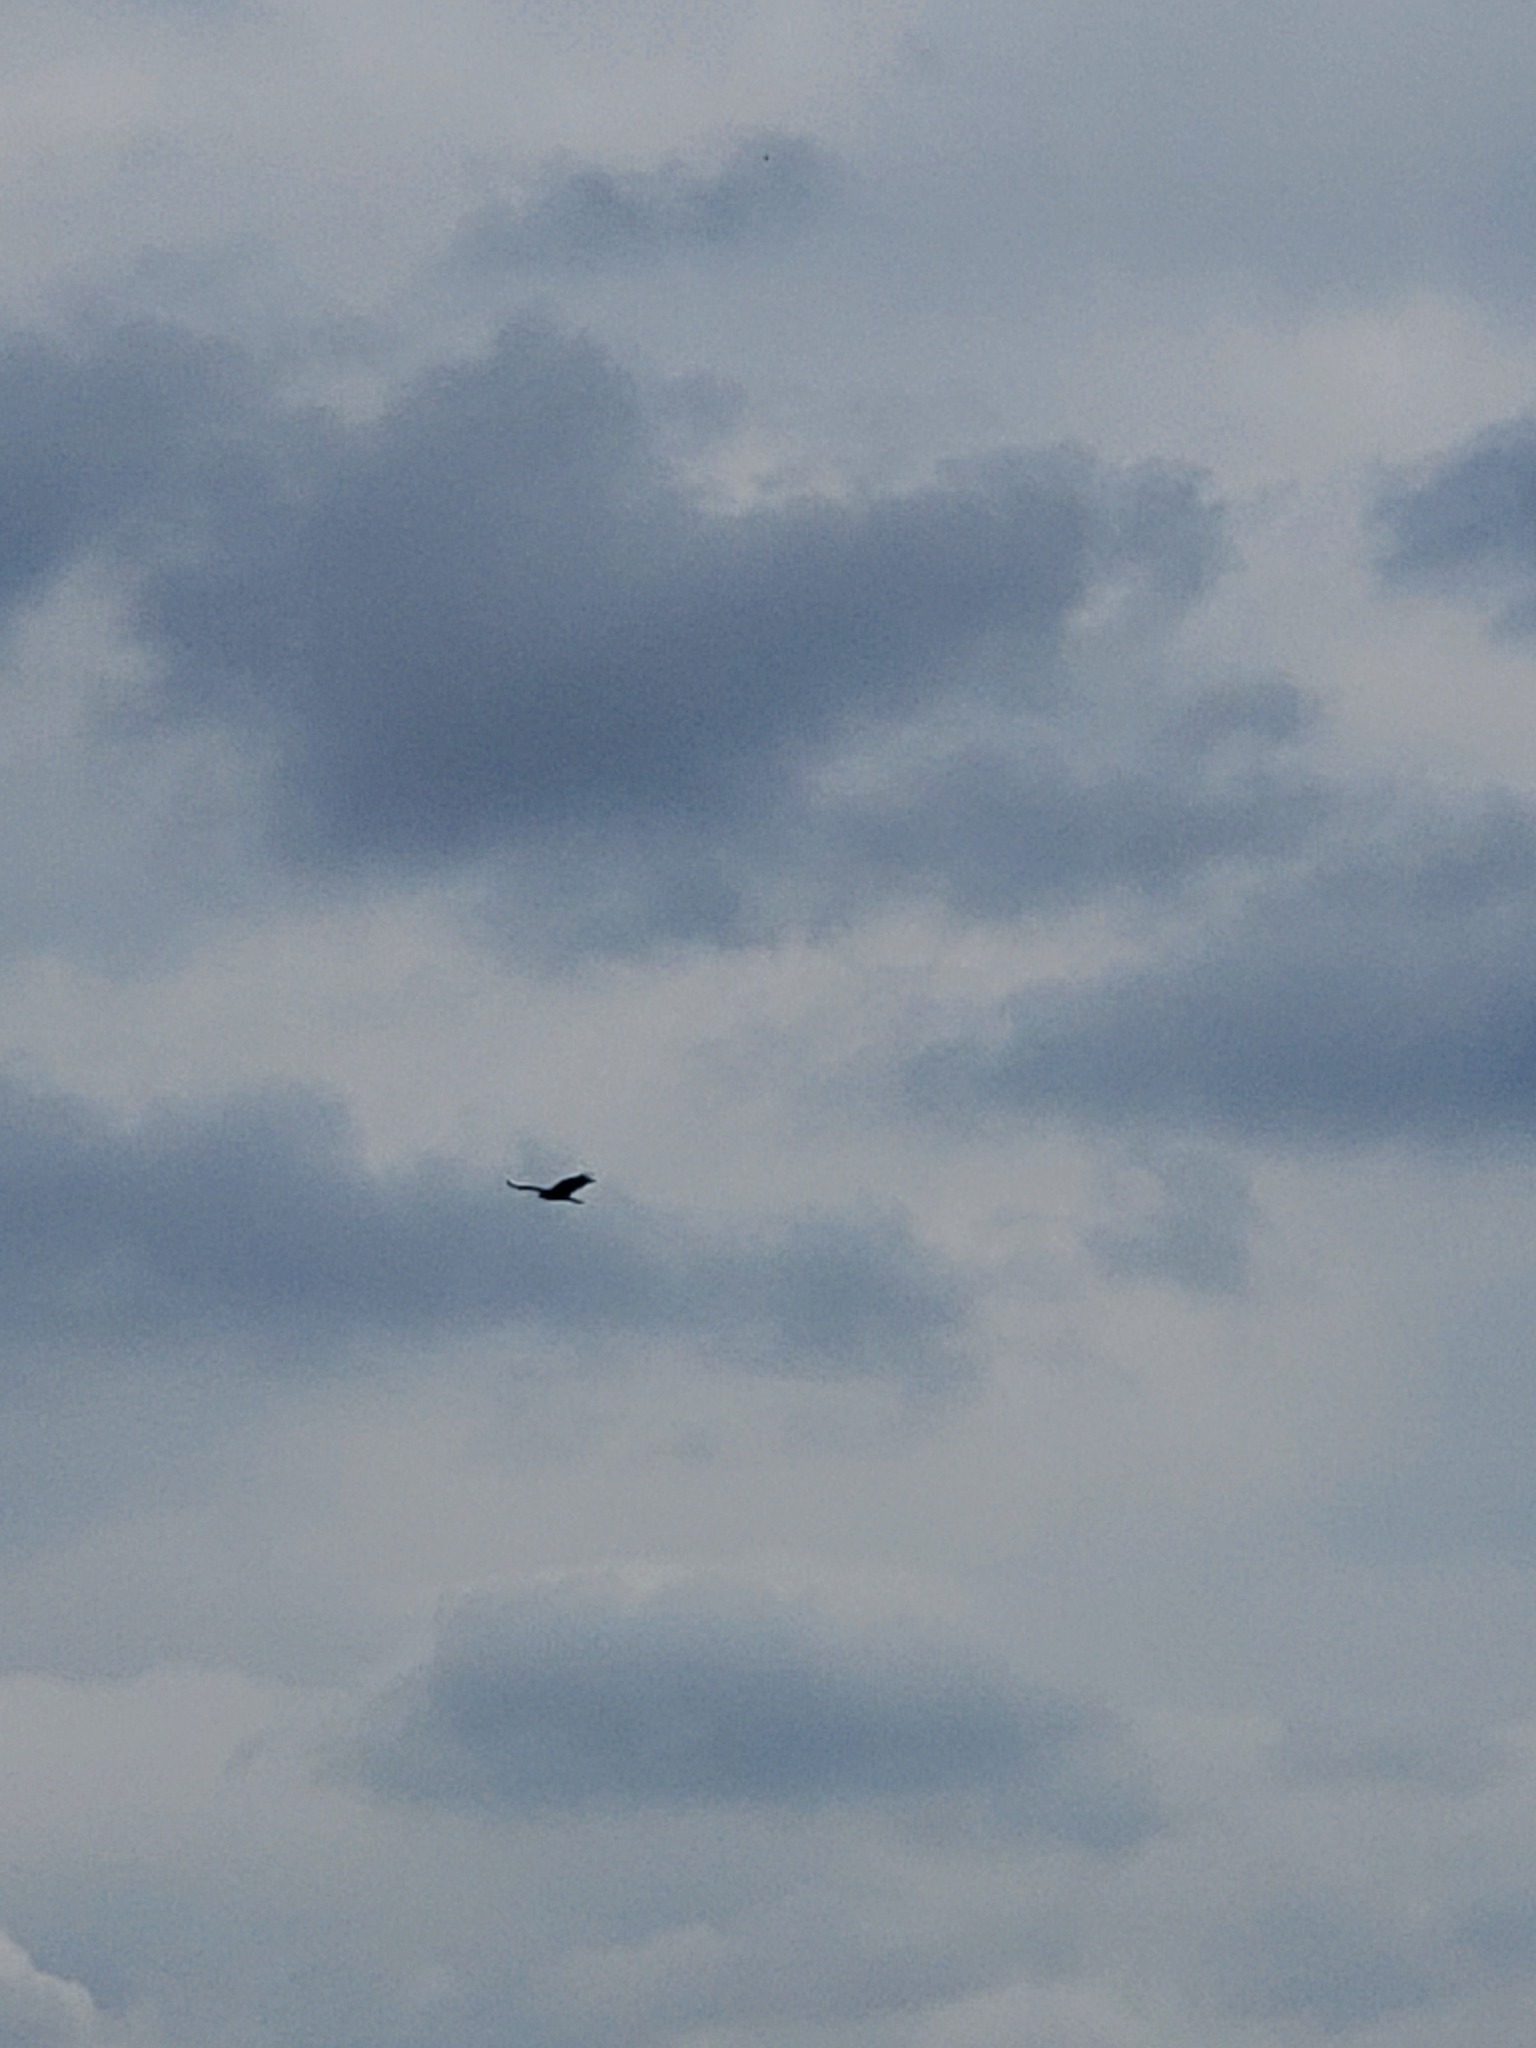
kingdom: Animalia
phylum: Chordata
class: Aves
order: Accipitriformes
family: Cathartidae
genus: Cathartes
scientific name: Cathartes aura
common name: Turkey vulture
